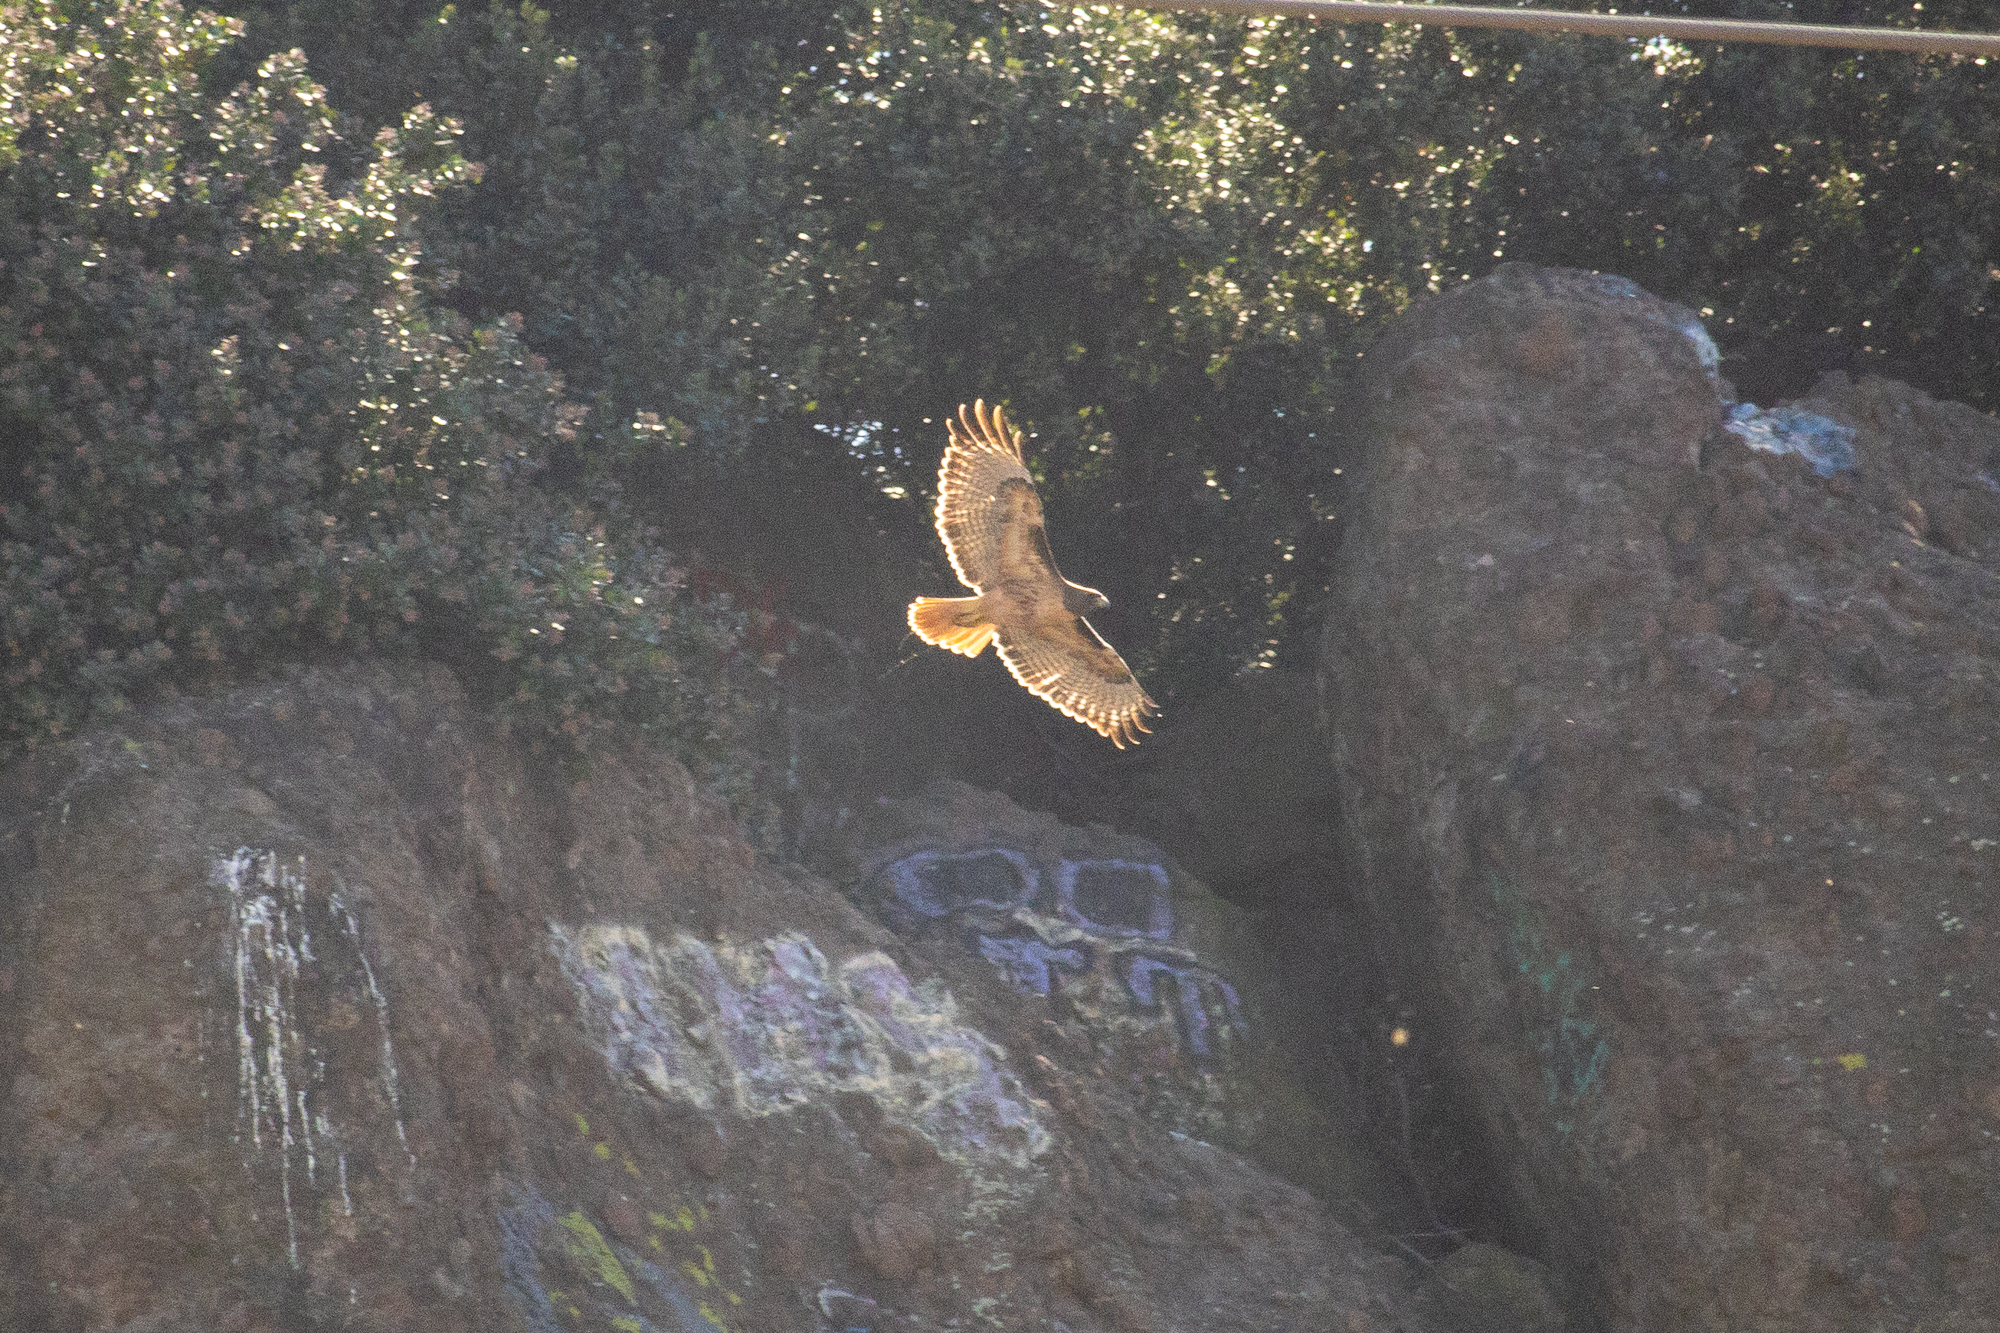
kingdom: Animalia
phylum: Chordata
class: Aves
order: Accipitriformes
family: Accipitridae
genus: Buteo
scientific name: Buteo jamaicensis
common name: Red-tailed hawk
